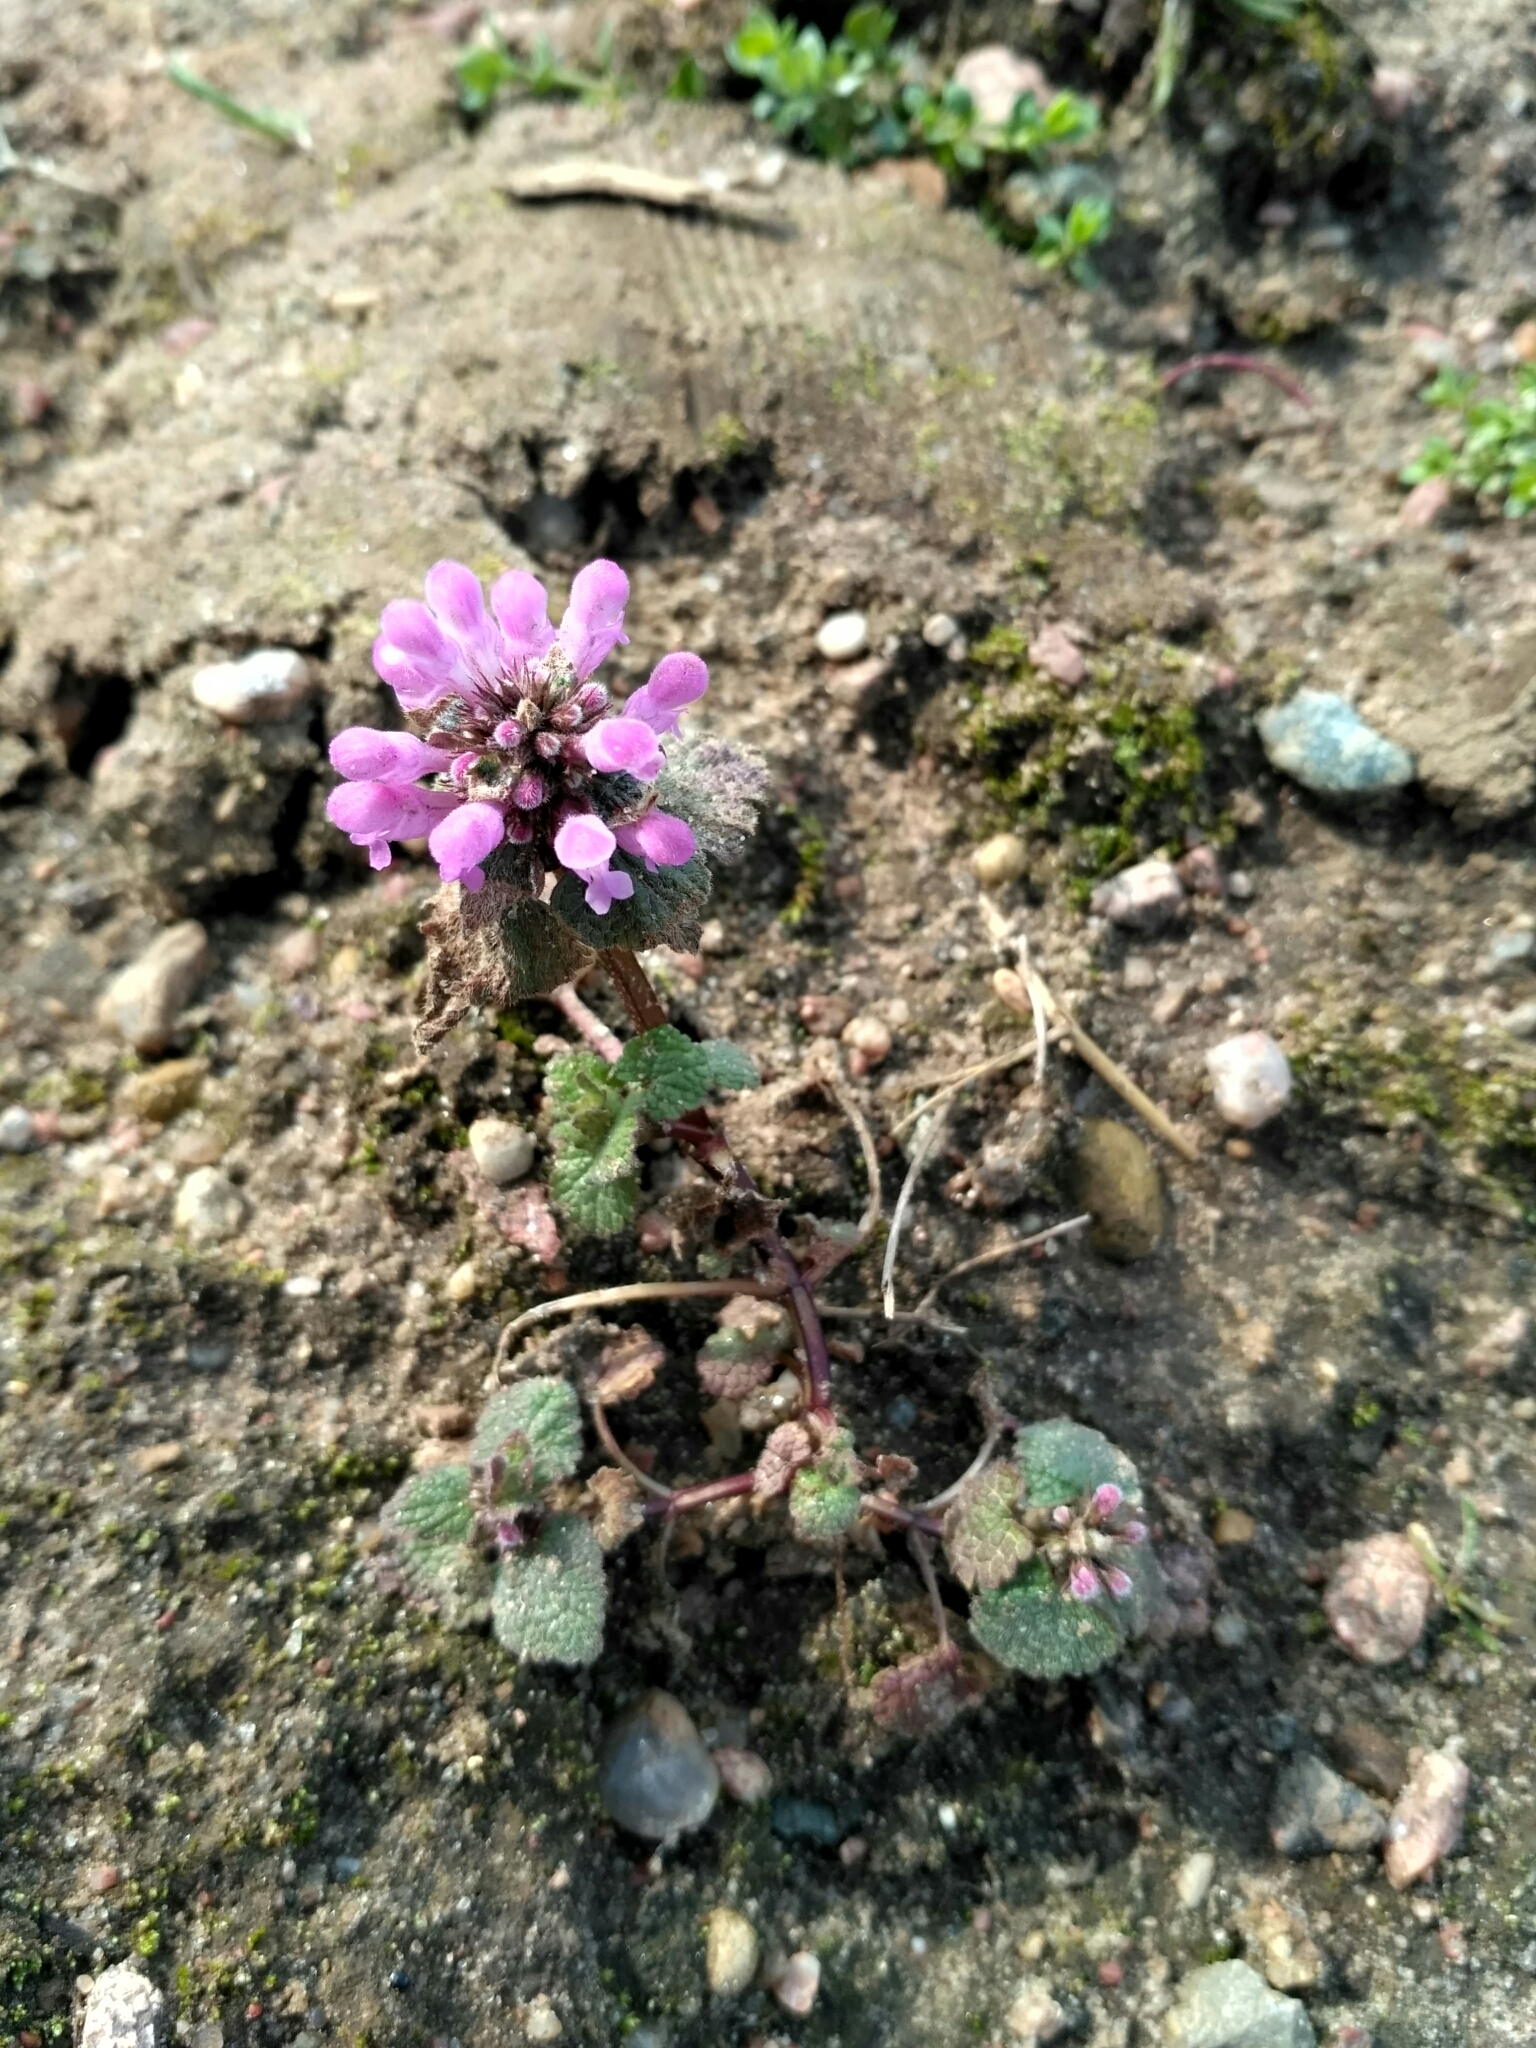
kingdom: Plantae
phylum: Tracheophyta
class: Magnoliopsida
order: Lamiales
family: Lamiaceae
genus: Lamium
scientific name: Lamium purpureum
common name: Red dead-nettle
